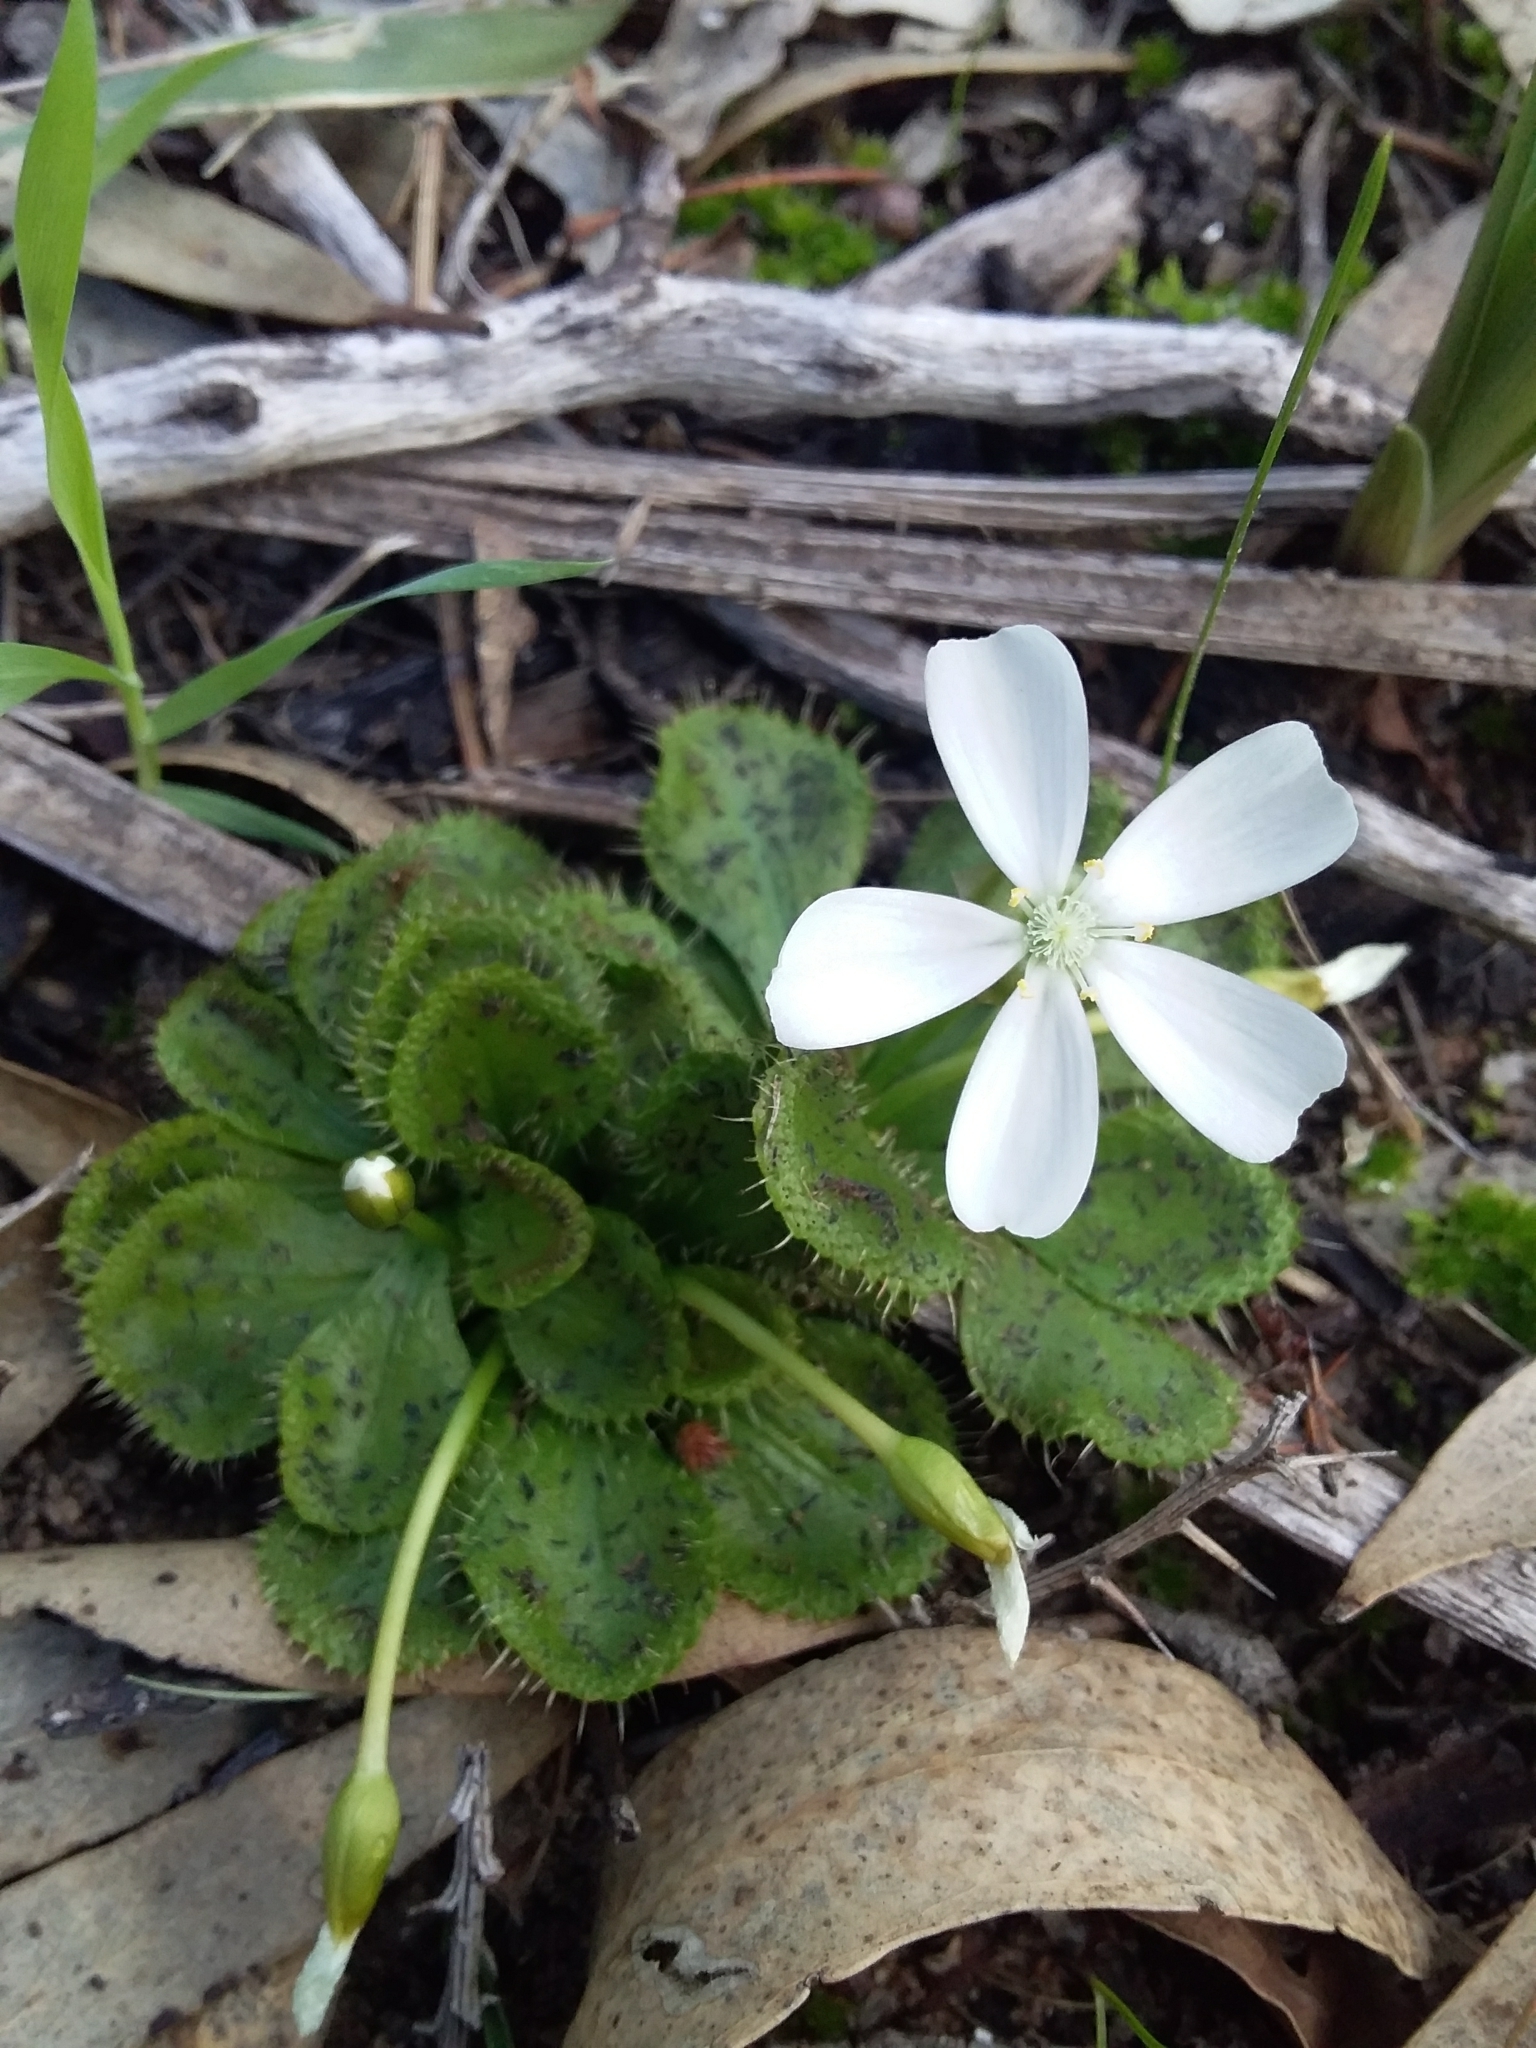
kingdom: Plantae
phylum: Tracheophyta
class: Magnoliopsida
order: Caryophyllales
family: Droseraceae
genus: Drosera
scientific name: Drosera whittakeri
